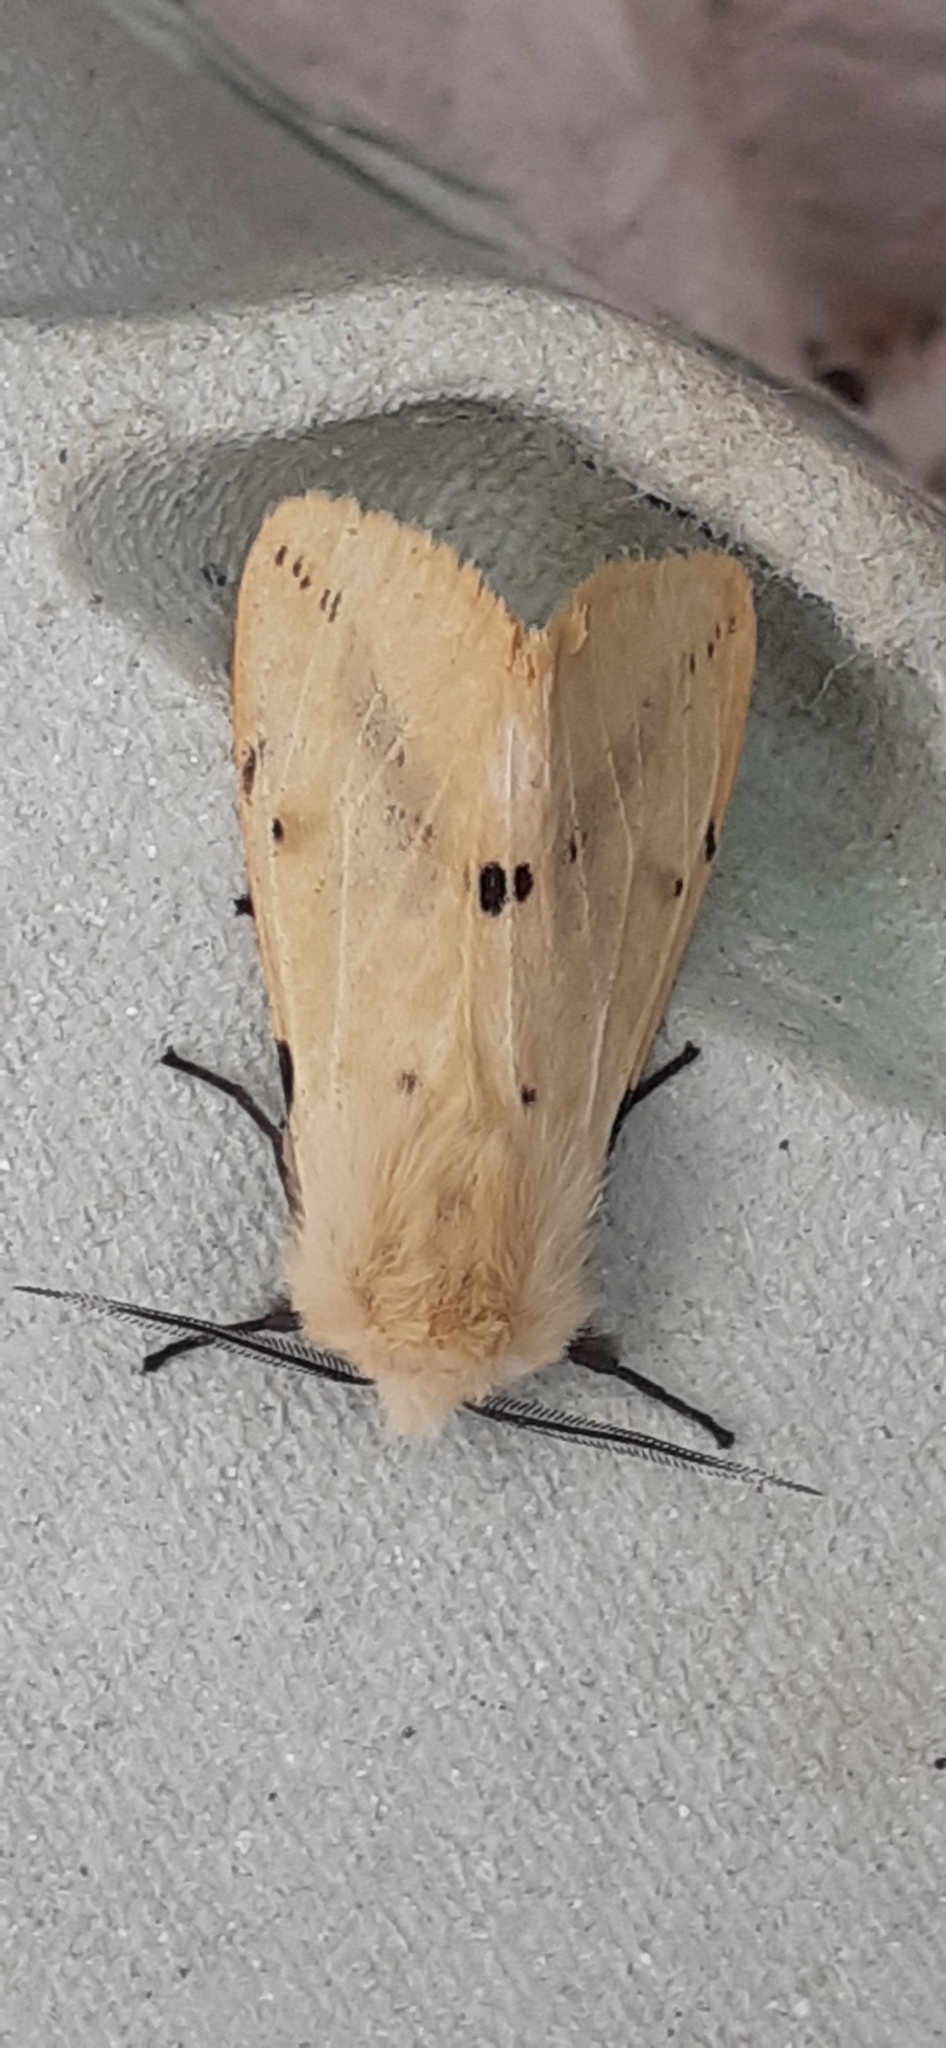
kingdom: Animalia
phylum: Arthropoda
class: Insecta
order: Lepidoptera
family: Erebidae
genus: Spilarctia
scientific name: Spilarctia lutea
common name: Buff ermine
